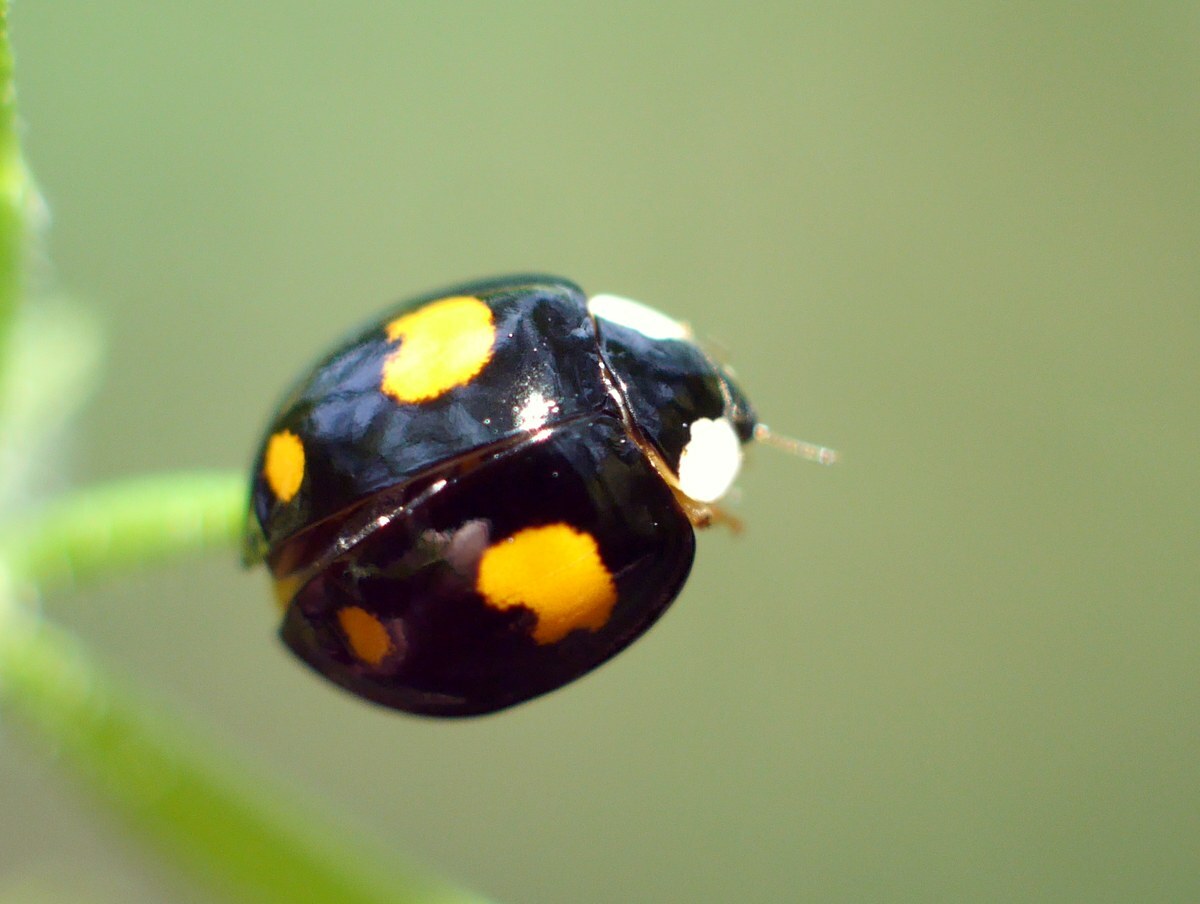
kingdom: Animalia
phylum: Arthropoda
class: Insecta
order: Coleoptera
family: Coccinellidae
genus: Harmonia
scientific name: Harmonia axyridis
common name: Harlequin ladybird
